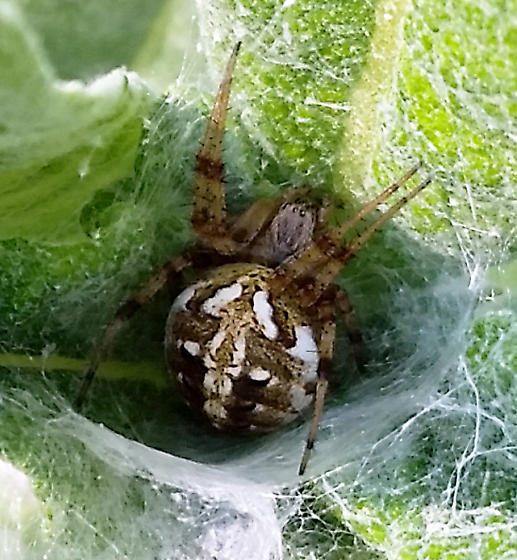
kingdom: Animalia
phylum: Arthropoda
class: Arachnida
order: Araneae
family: Araneidae
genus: Neoscona
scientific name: Neoscona arabesca
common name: Orb weavers
